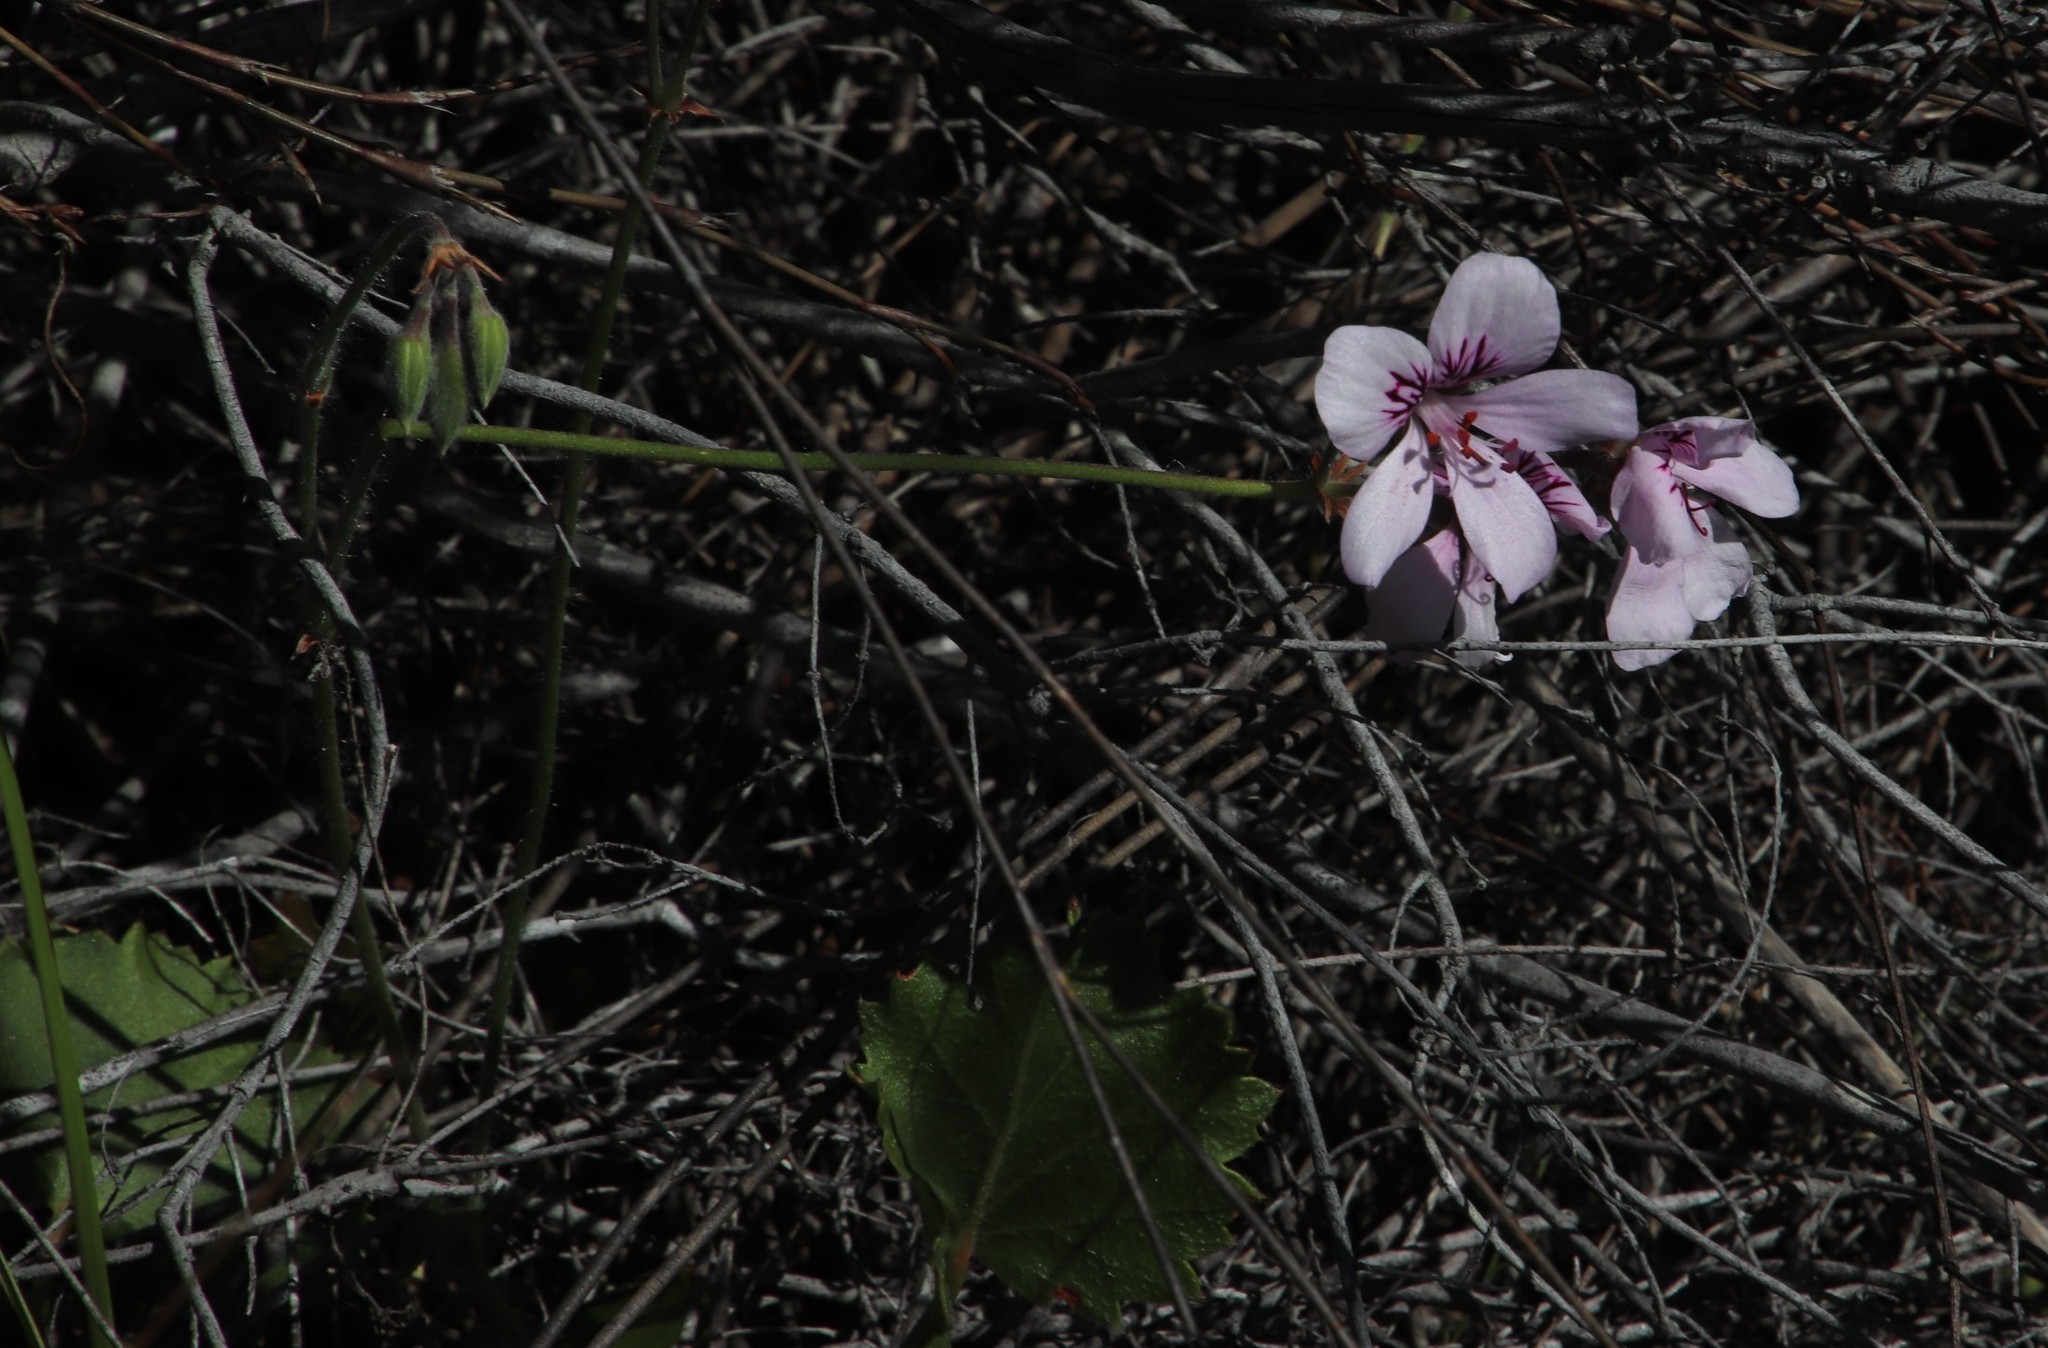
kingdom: Plantae
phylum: Tracheophyta
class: Magnoliopsida
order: Geraniales
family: Geraniaceae
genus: Pelargonium
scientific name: Pelargonium elegans
